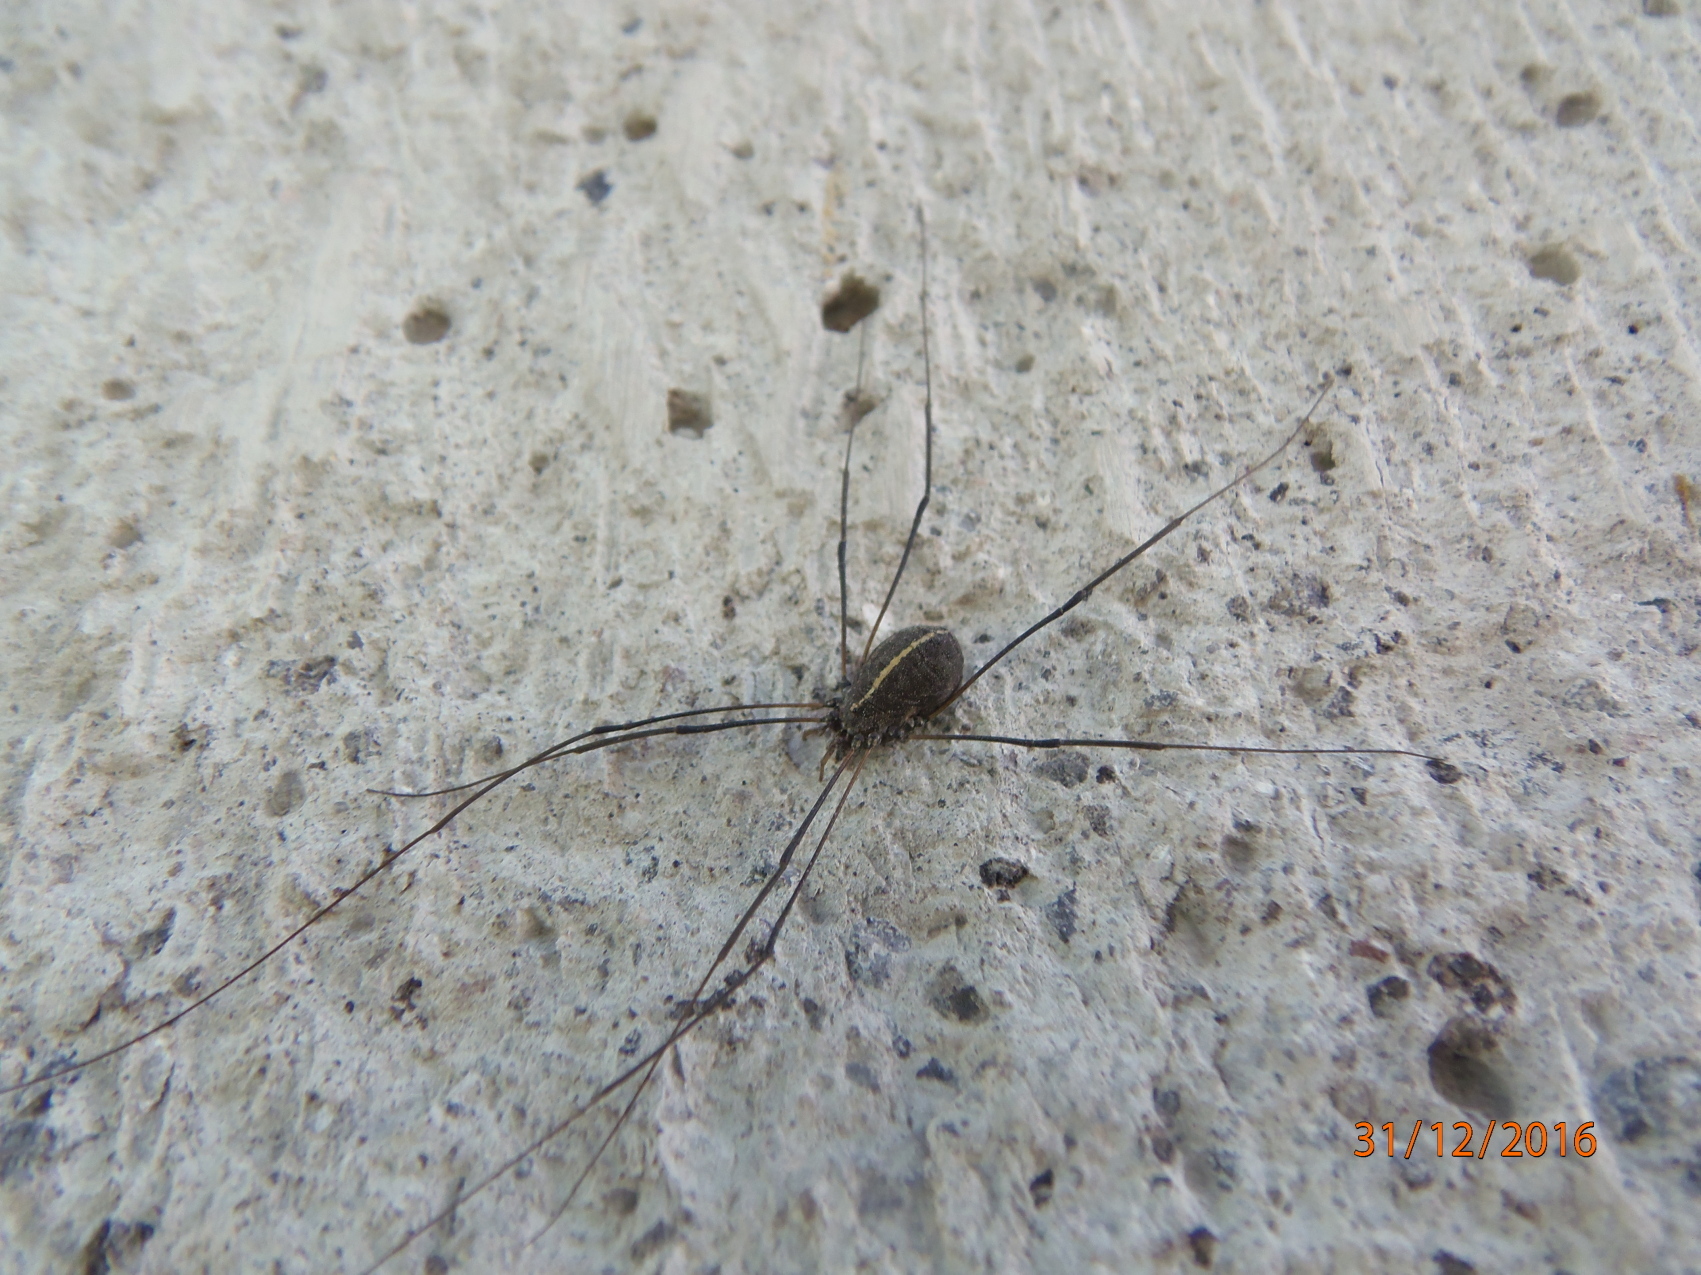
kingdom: Animalia
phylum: Arthropoda
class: Arachnida
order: Opiliones
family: Sclerosomatidae
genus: Paranelima
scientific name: Paranelima albalineata
